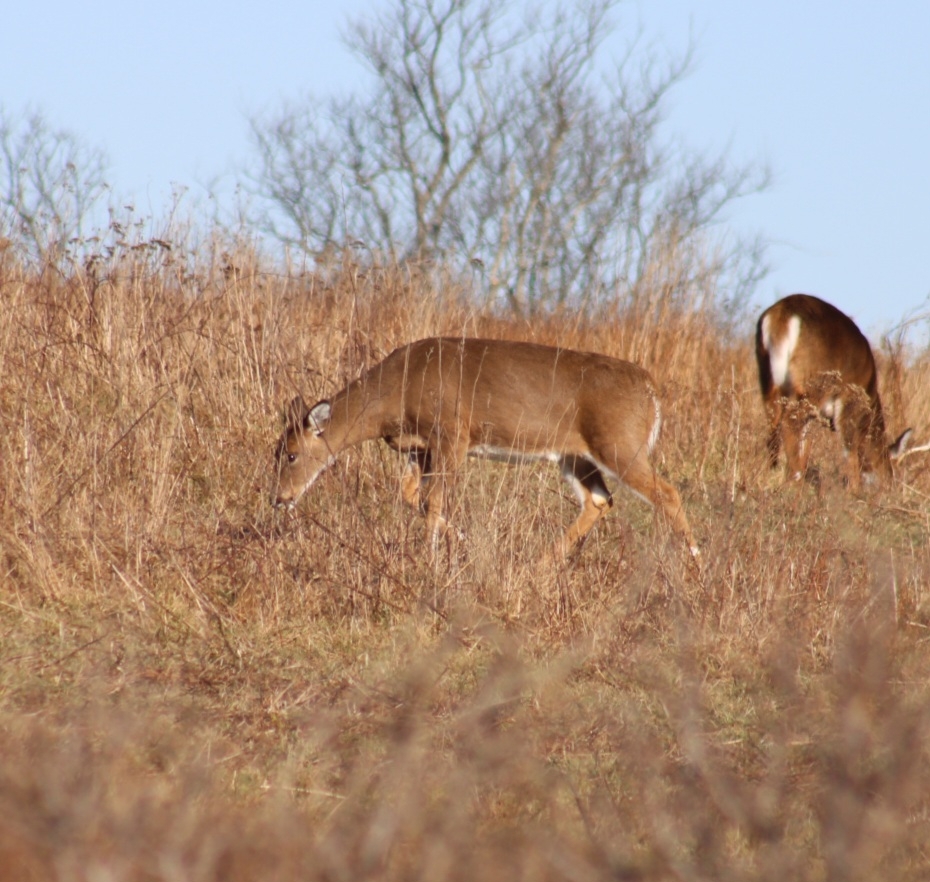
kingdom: Animalia
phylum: Chordata
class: Mammalia
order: Artiodactyla
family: Cervidae
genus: Odocoileus
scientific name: Odocoileus virginianus
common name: White-tailed deer
